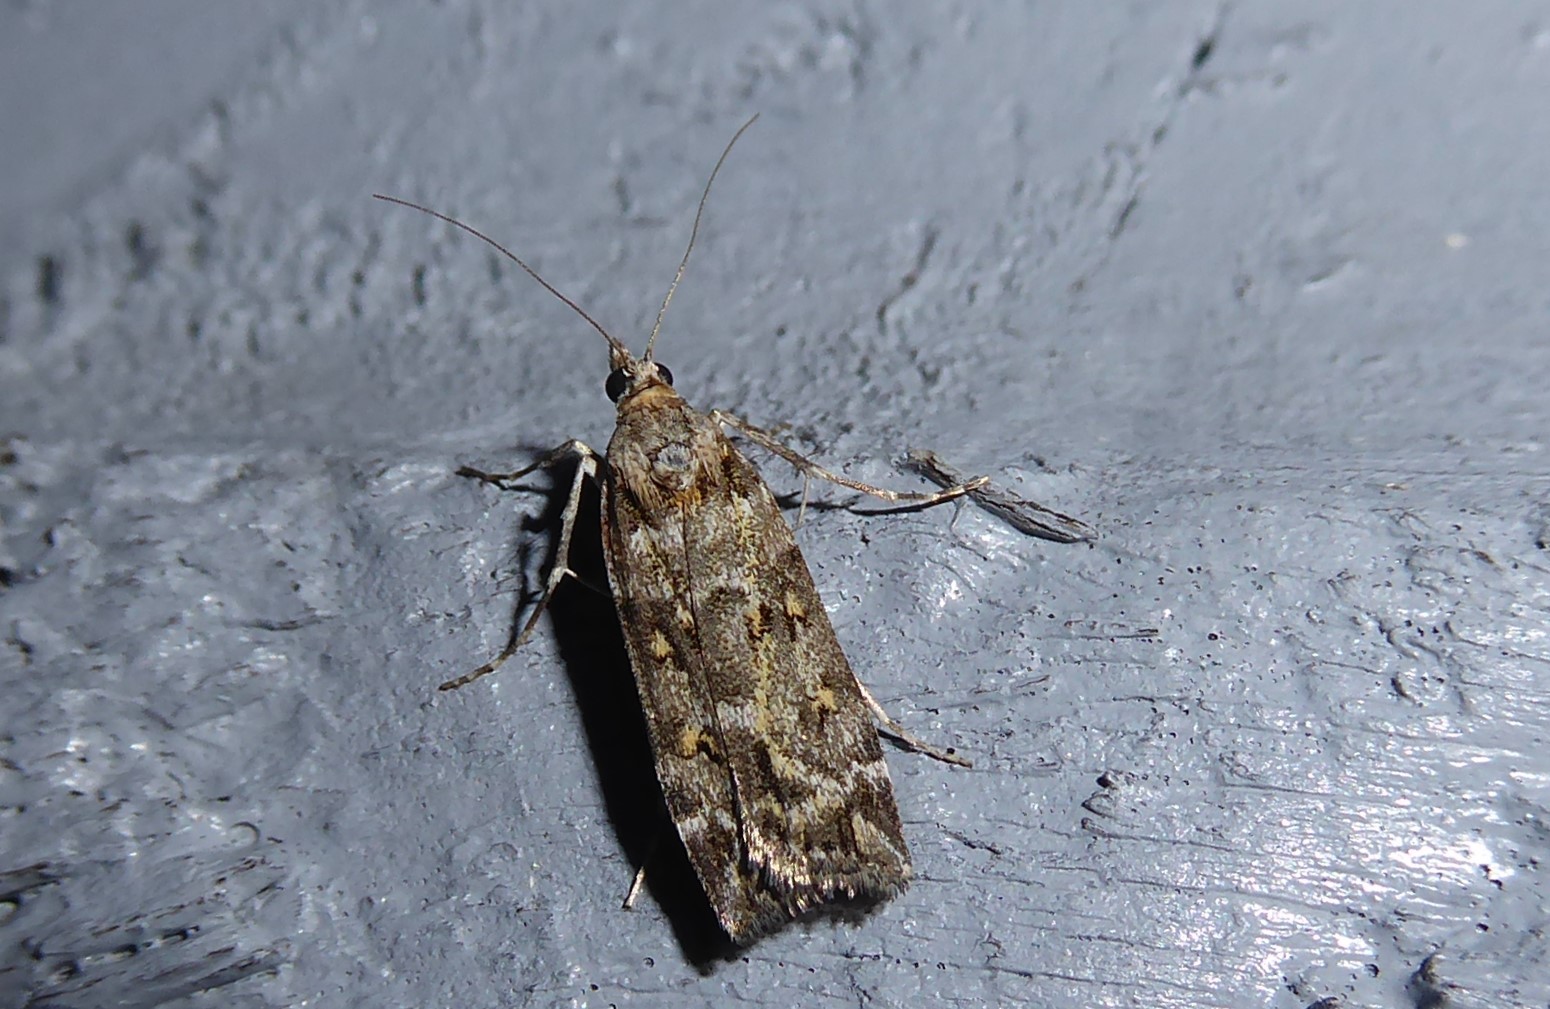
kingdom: Animalia
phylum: Arthropoda
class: Insecta
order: Lepidoptera
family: Crambidae
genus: Eudonia
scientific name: Eudonia diphtheralis
